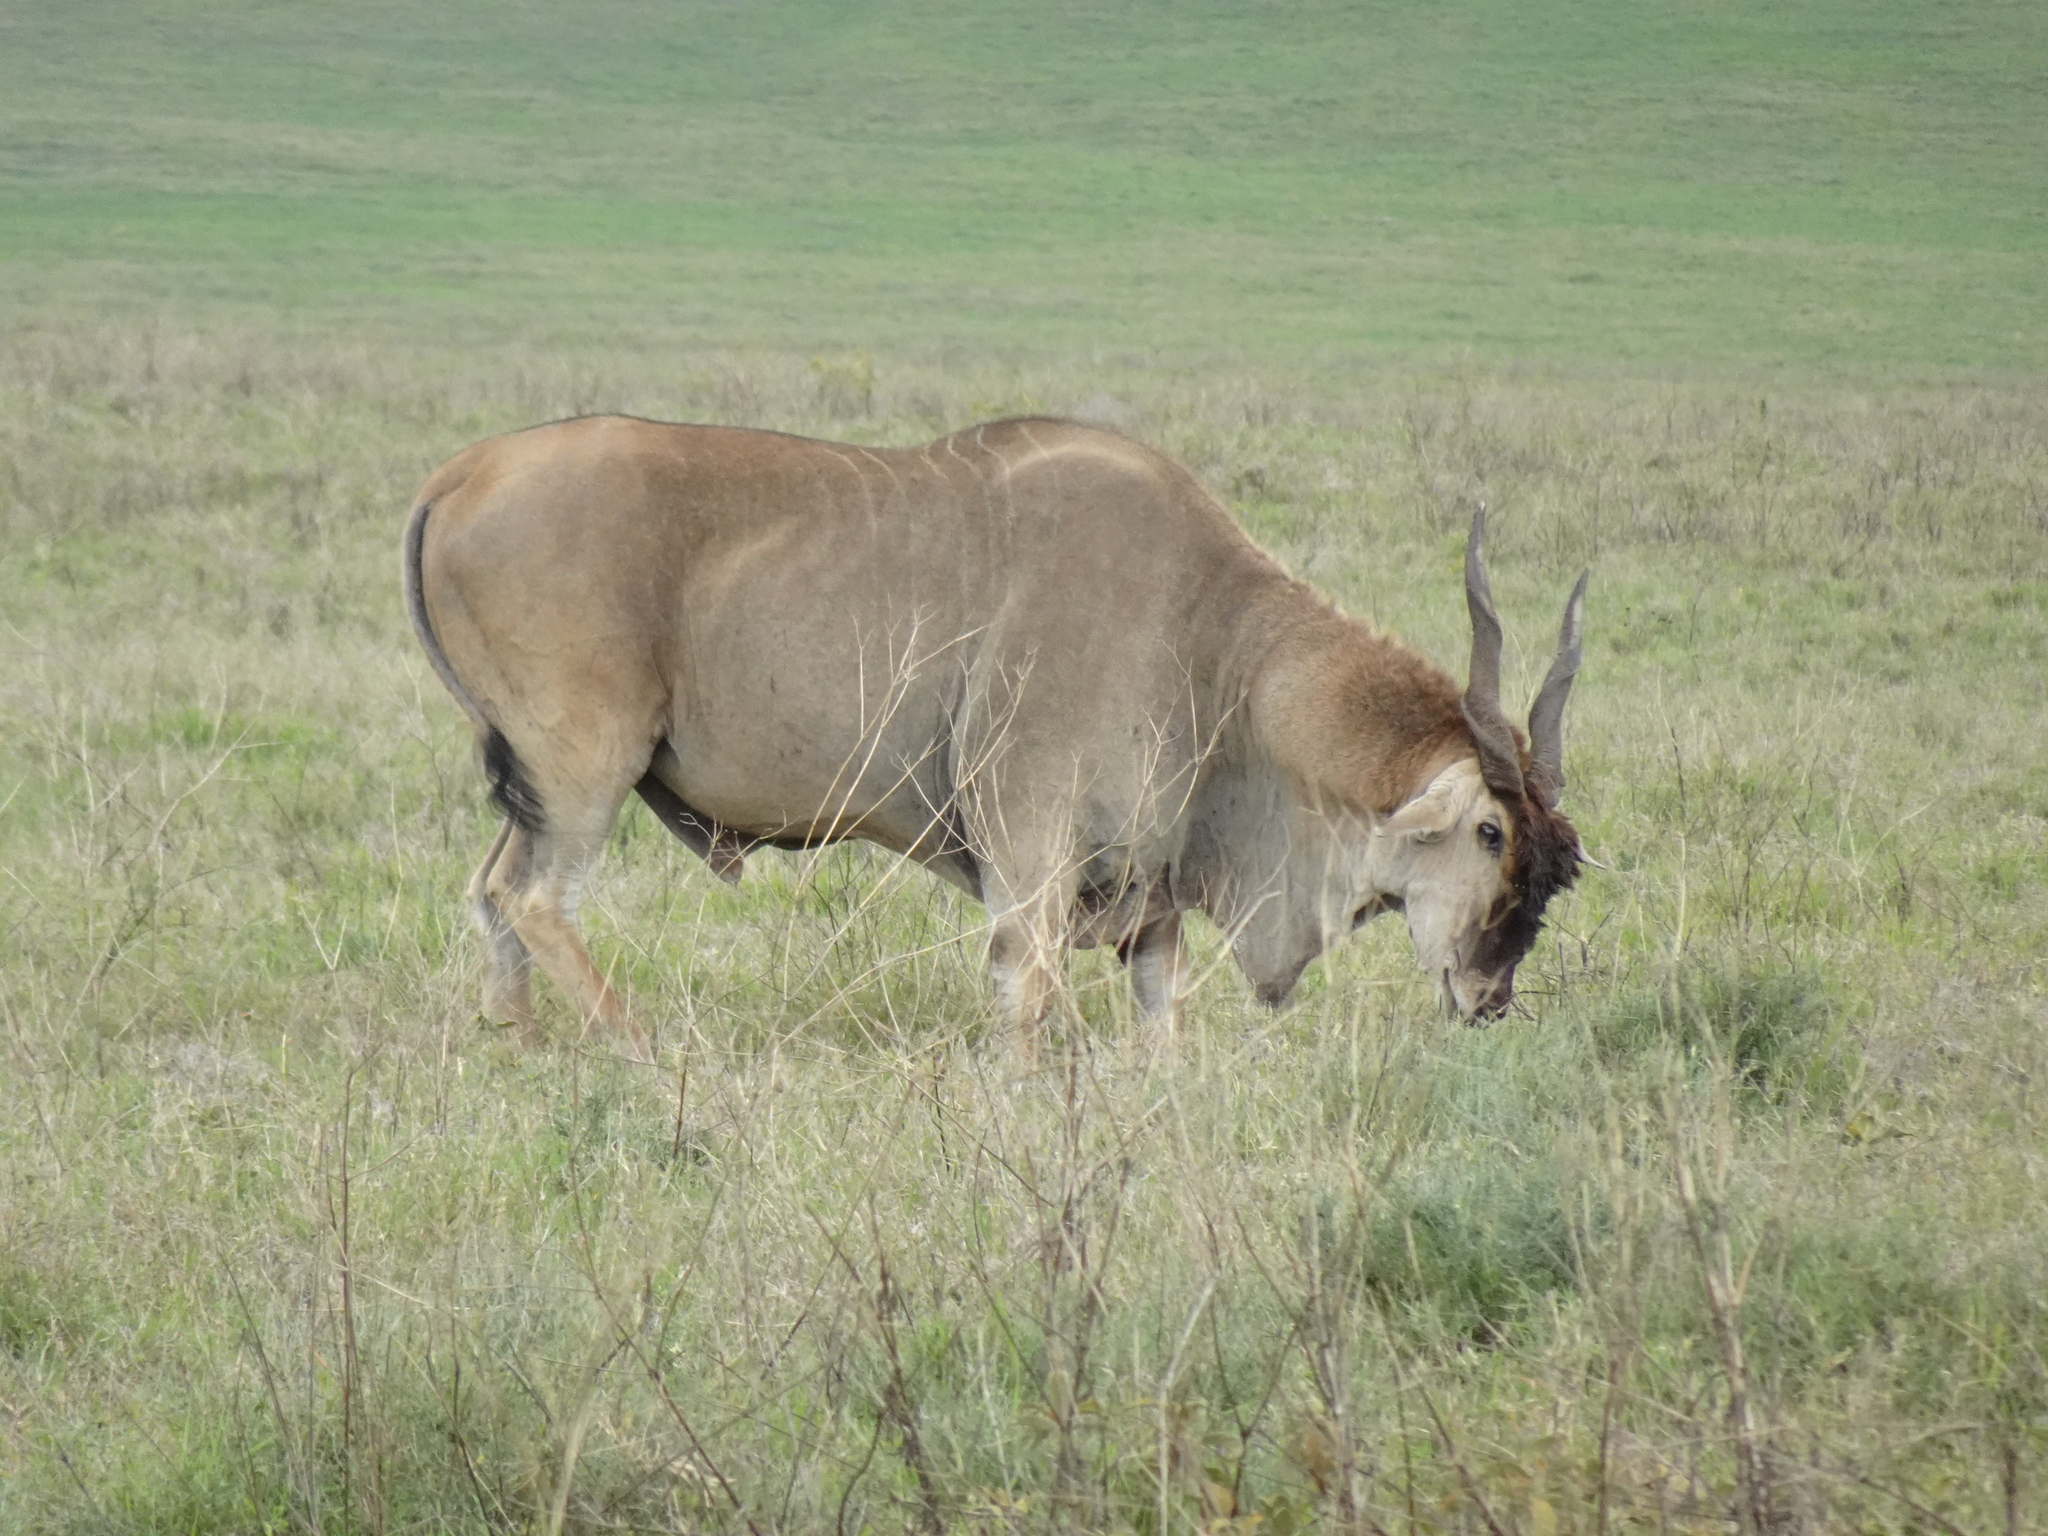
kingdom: Animalia
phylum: Chordata
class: Mammalia
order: Artiodactyla
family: Bovidae
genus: Taurotragus
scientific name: Taurotragus oryx
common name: Common eland
